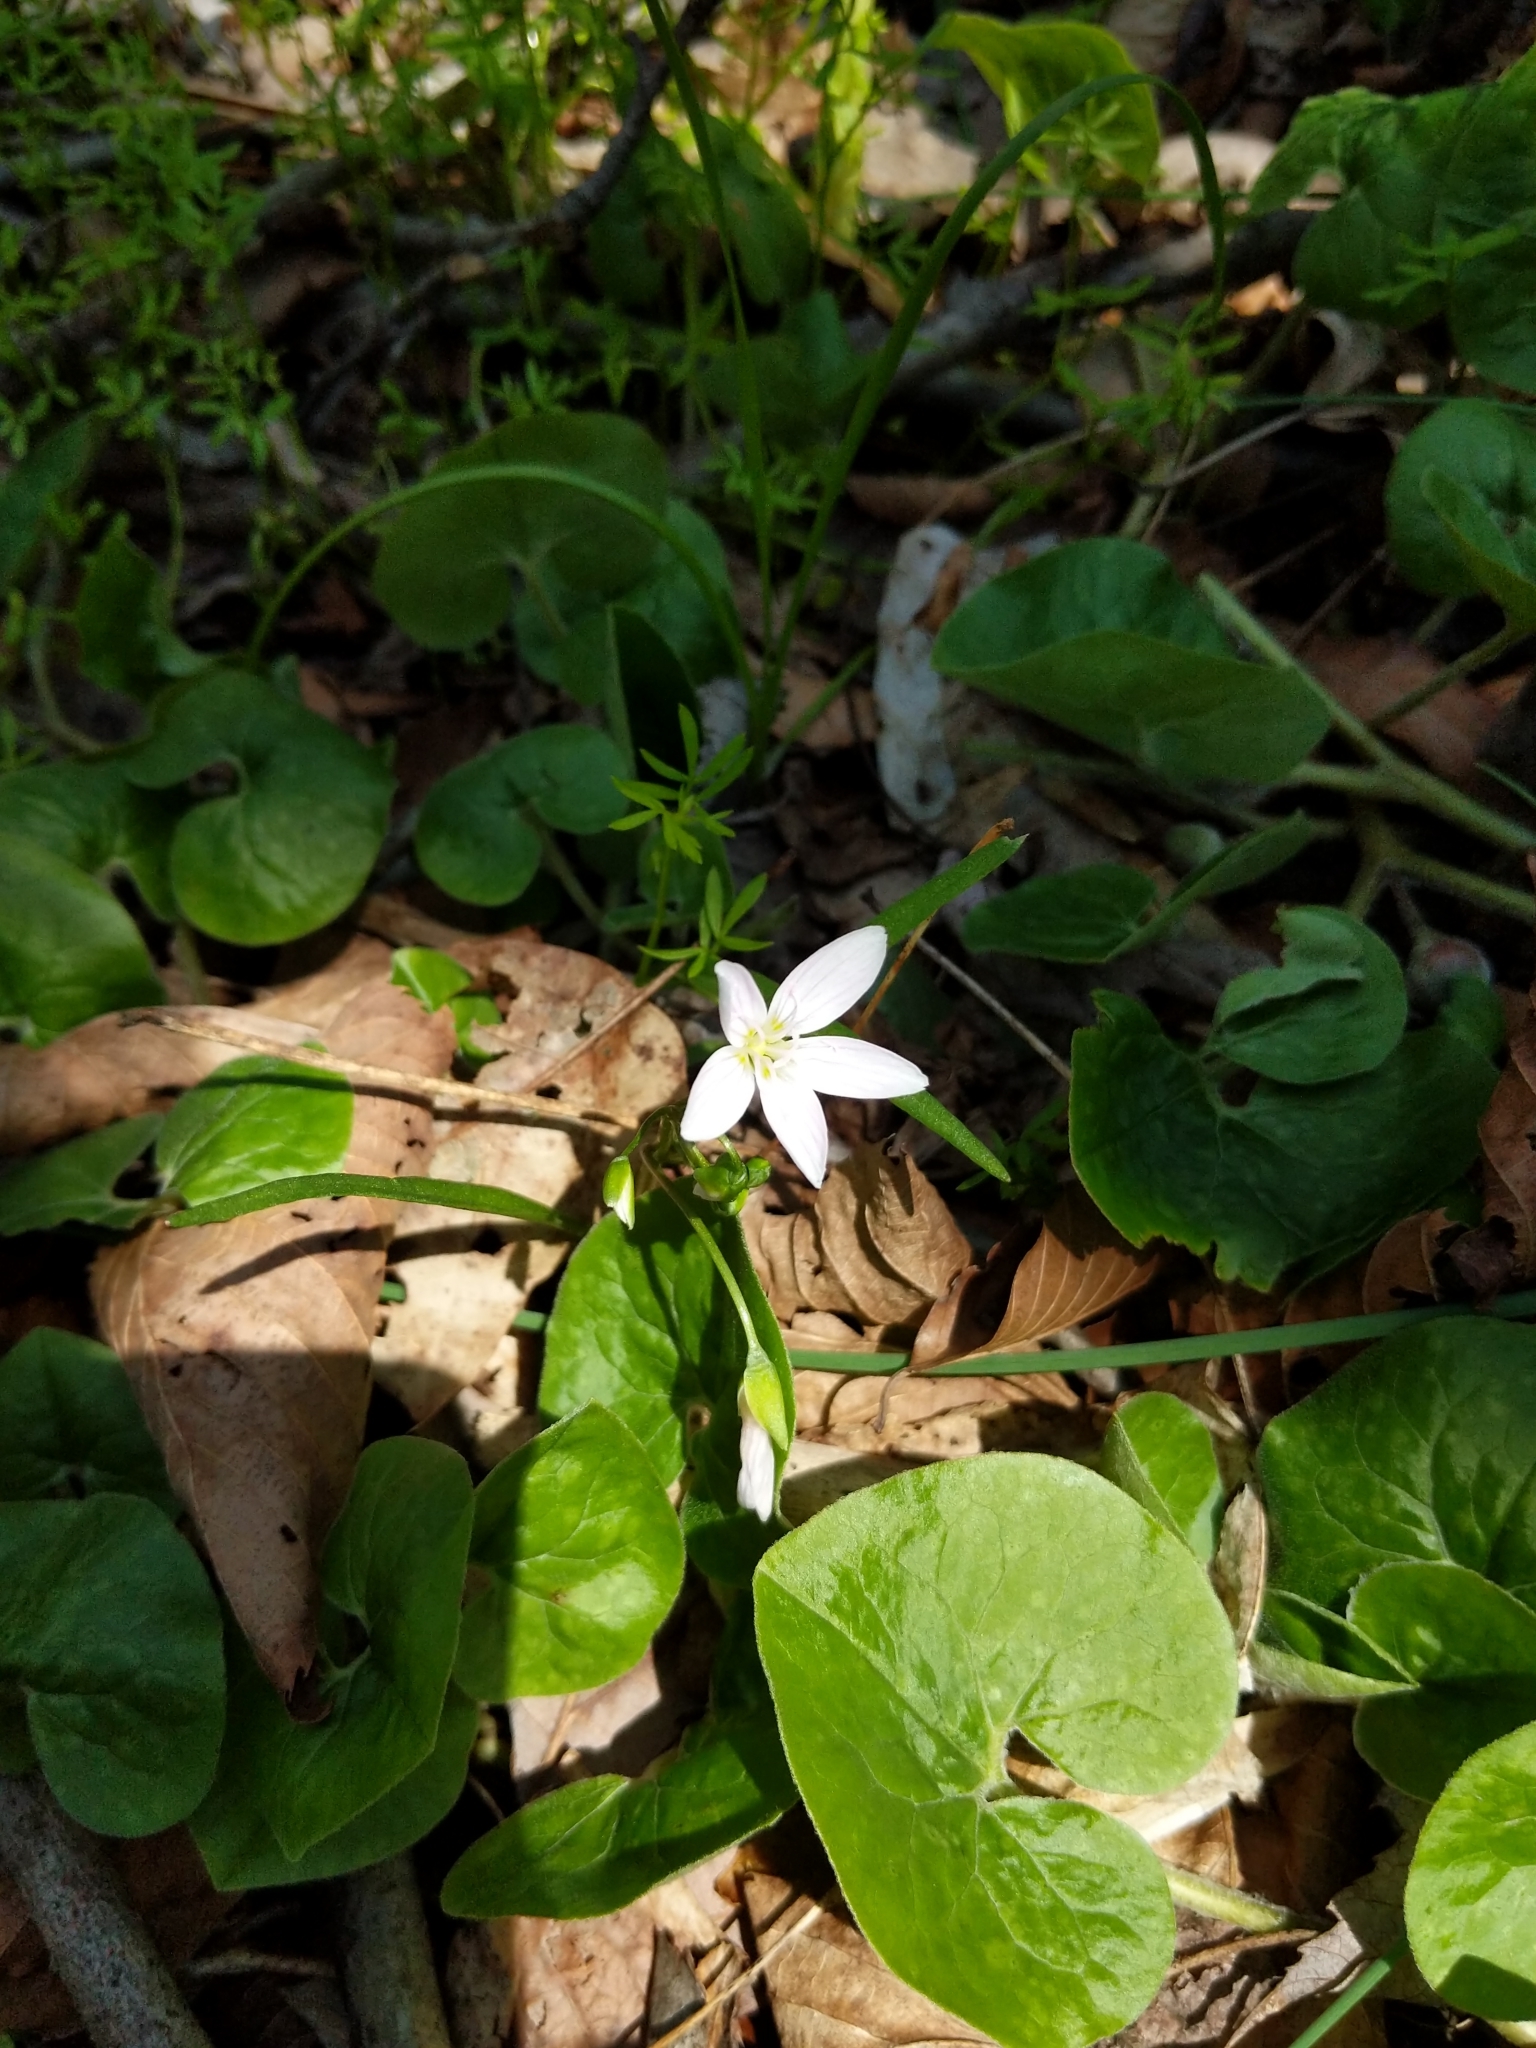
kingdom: Plantae
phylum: Tracheophyta
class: Magnoliopsida
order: Caryophyllales
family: Montiaceae
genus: Claytonia
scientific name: Claytonia virginica
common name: Virginia springbeauty
